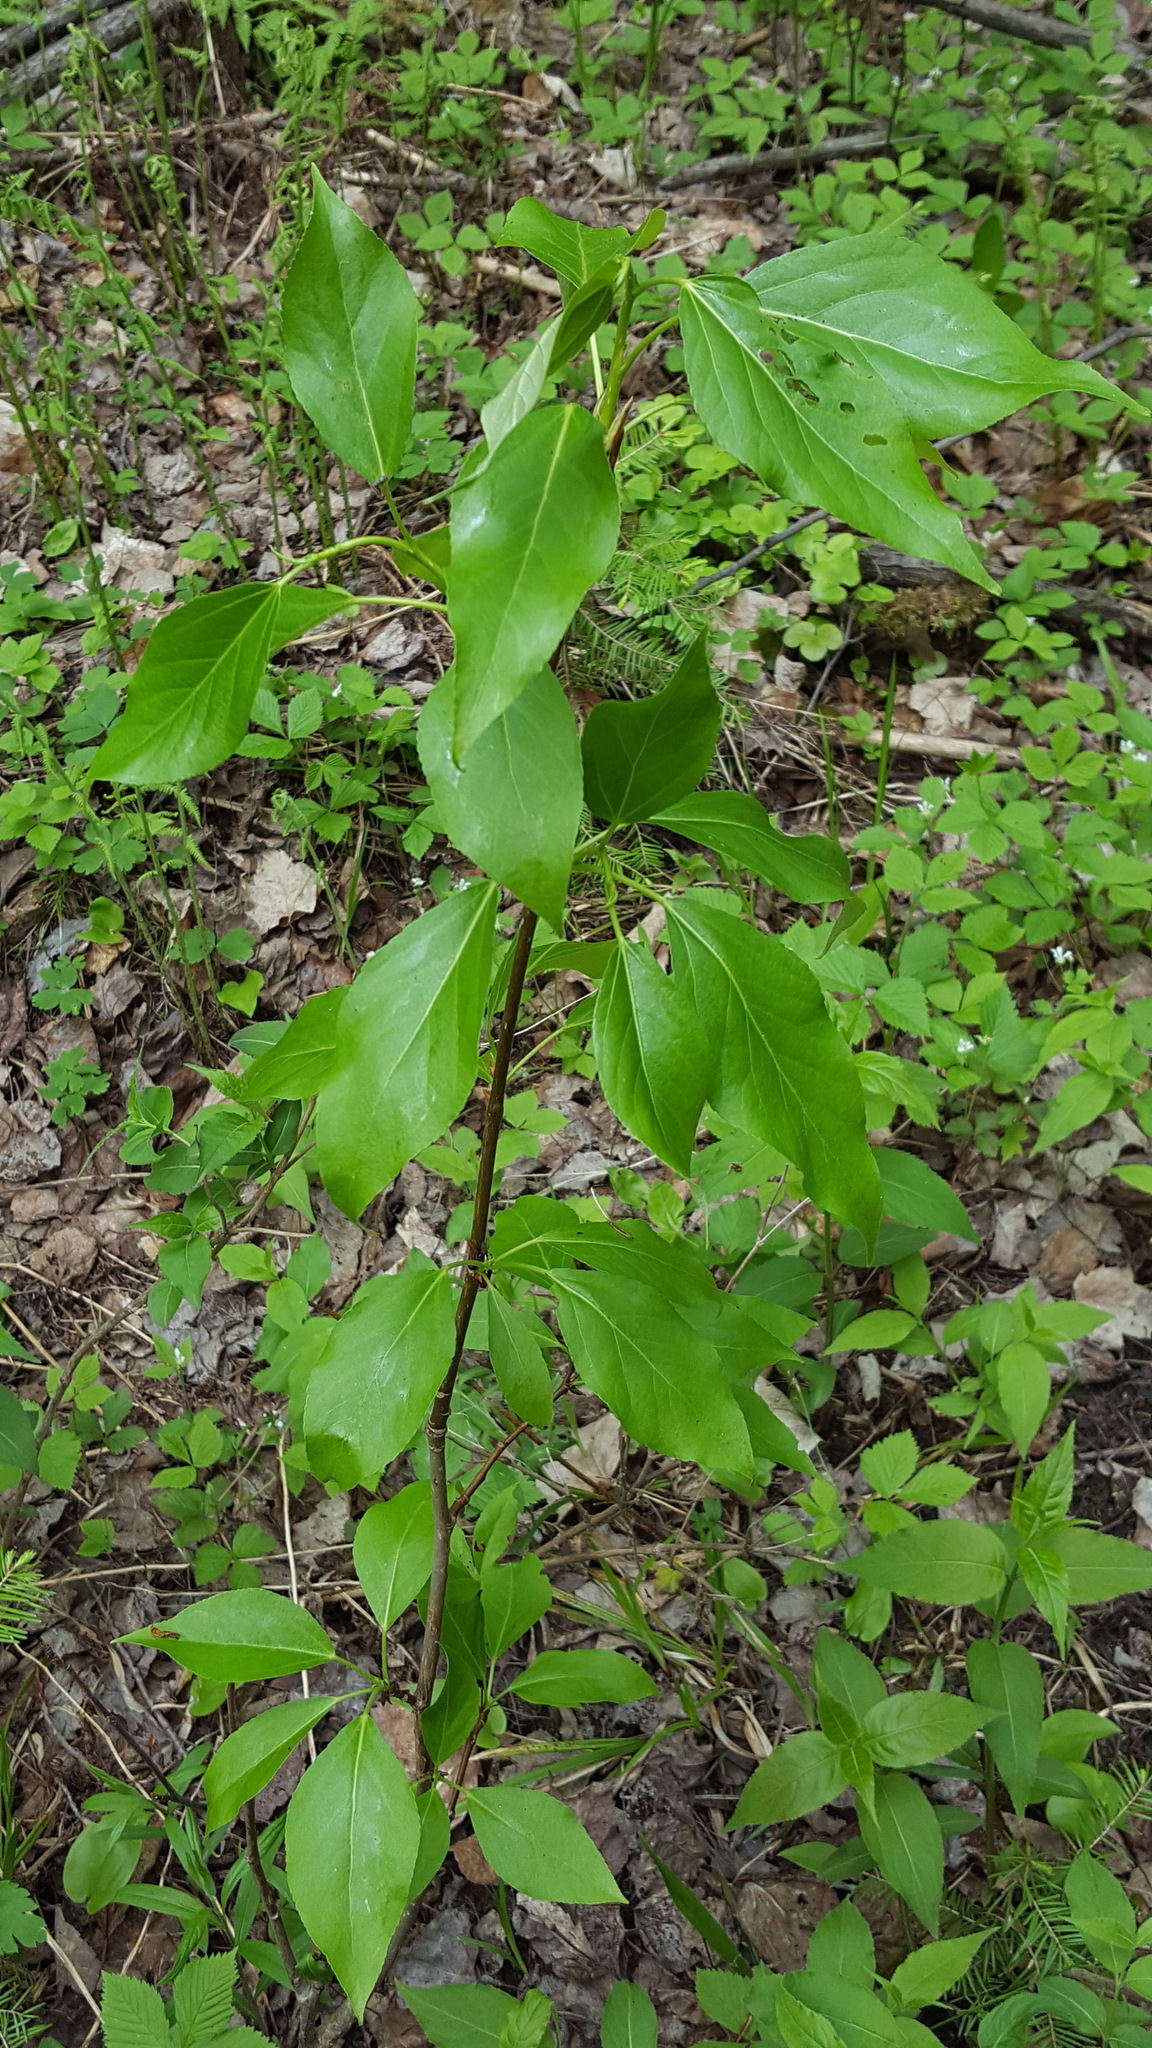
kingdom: Plantae
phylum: Tracheophyta
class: Magnoliopsida
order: Malpighiales
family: Salicaceae
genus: Populus
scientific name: Populus balsamifera
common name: Balsam poplar
